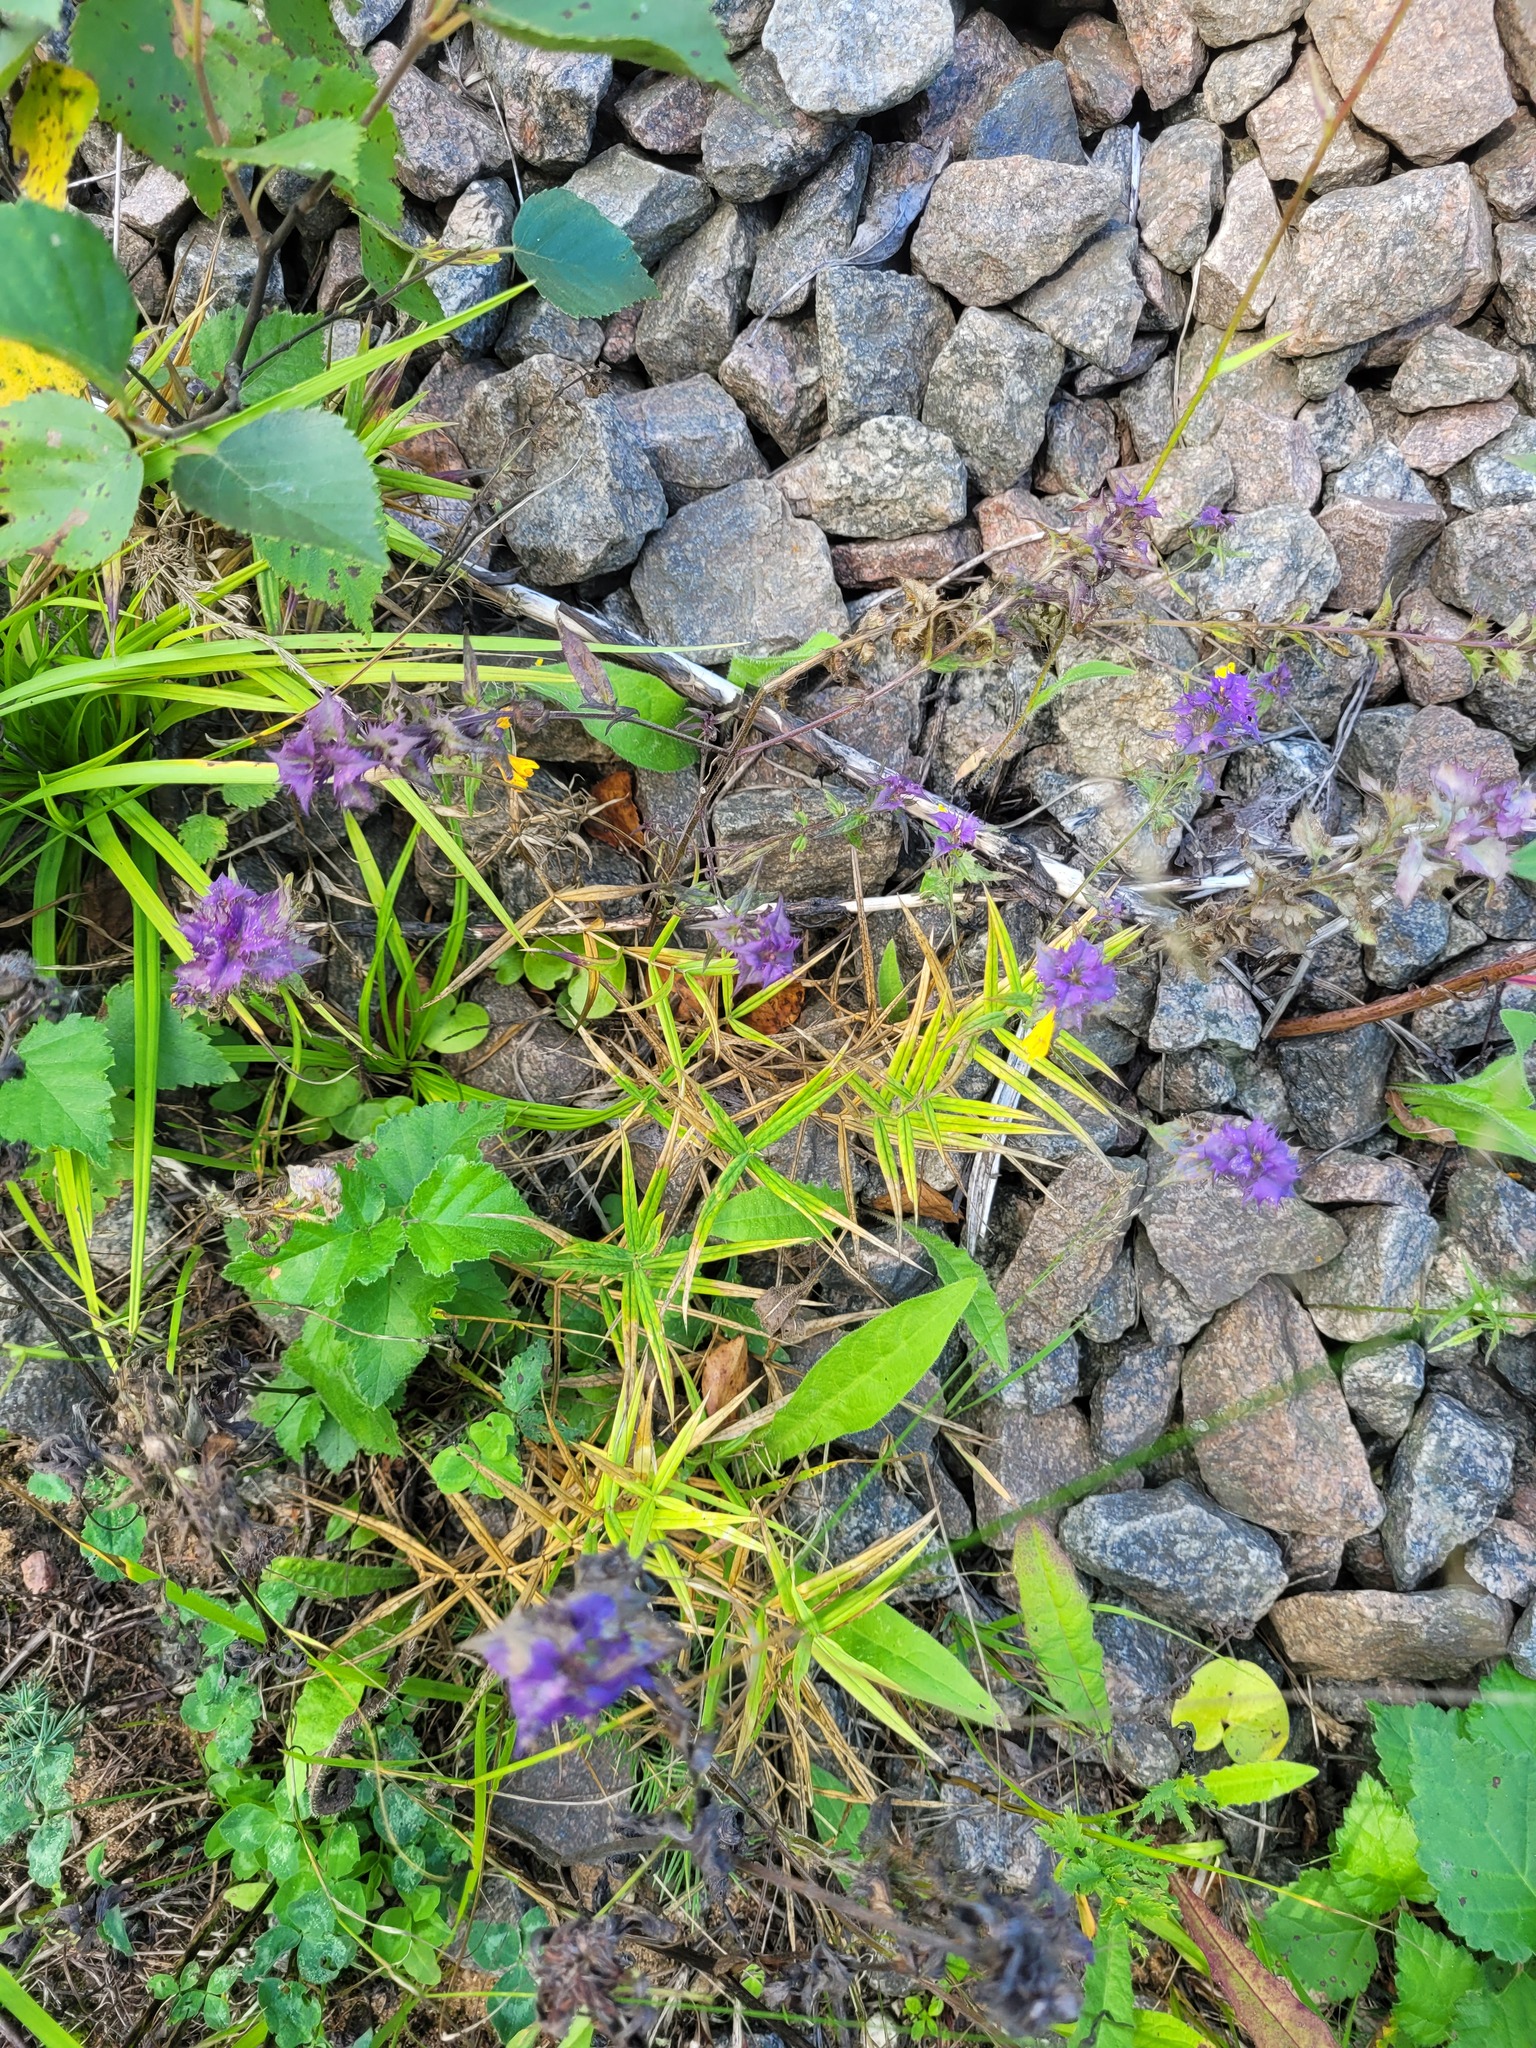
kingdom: Plantae
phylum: Tracheophyta
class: Magnoliopsida
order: Caryophyllales
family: Caryophyllaceae
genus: Rabelera
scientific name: Rabelera holostea
